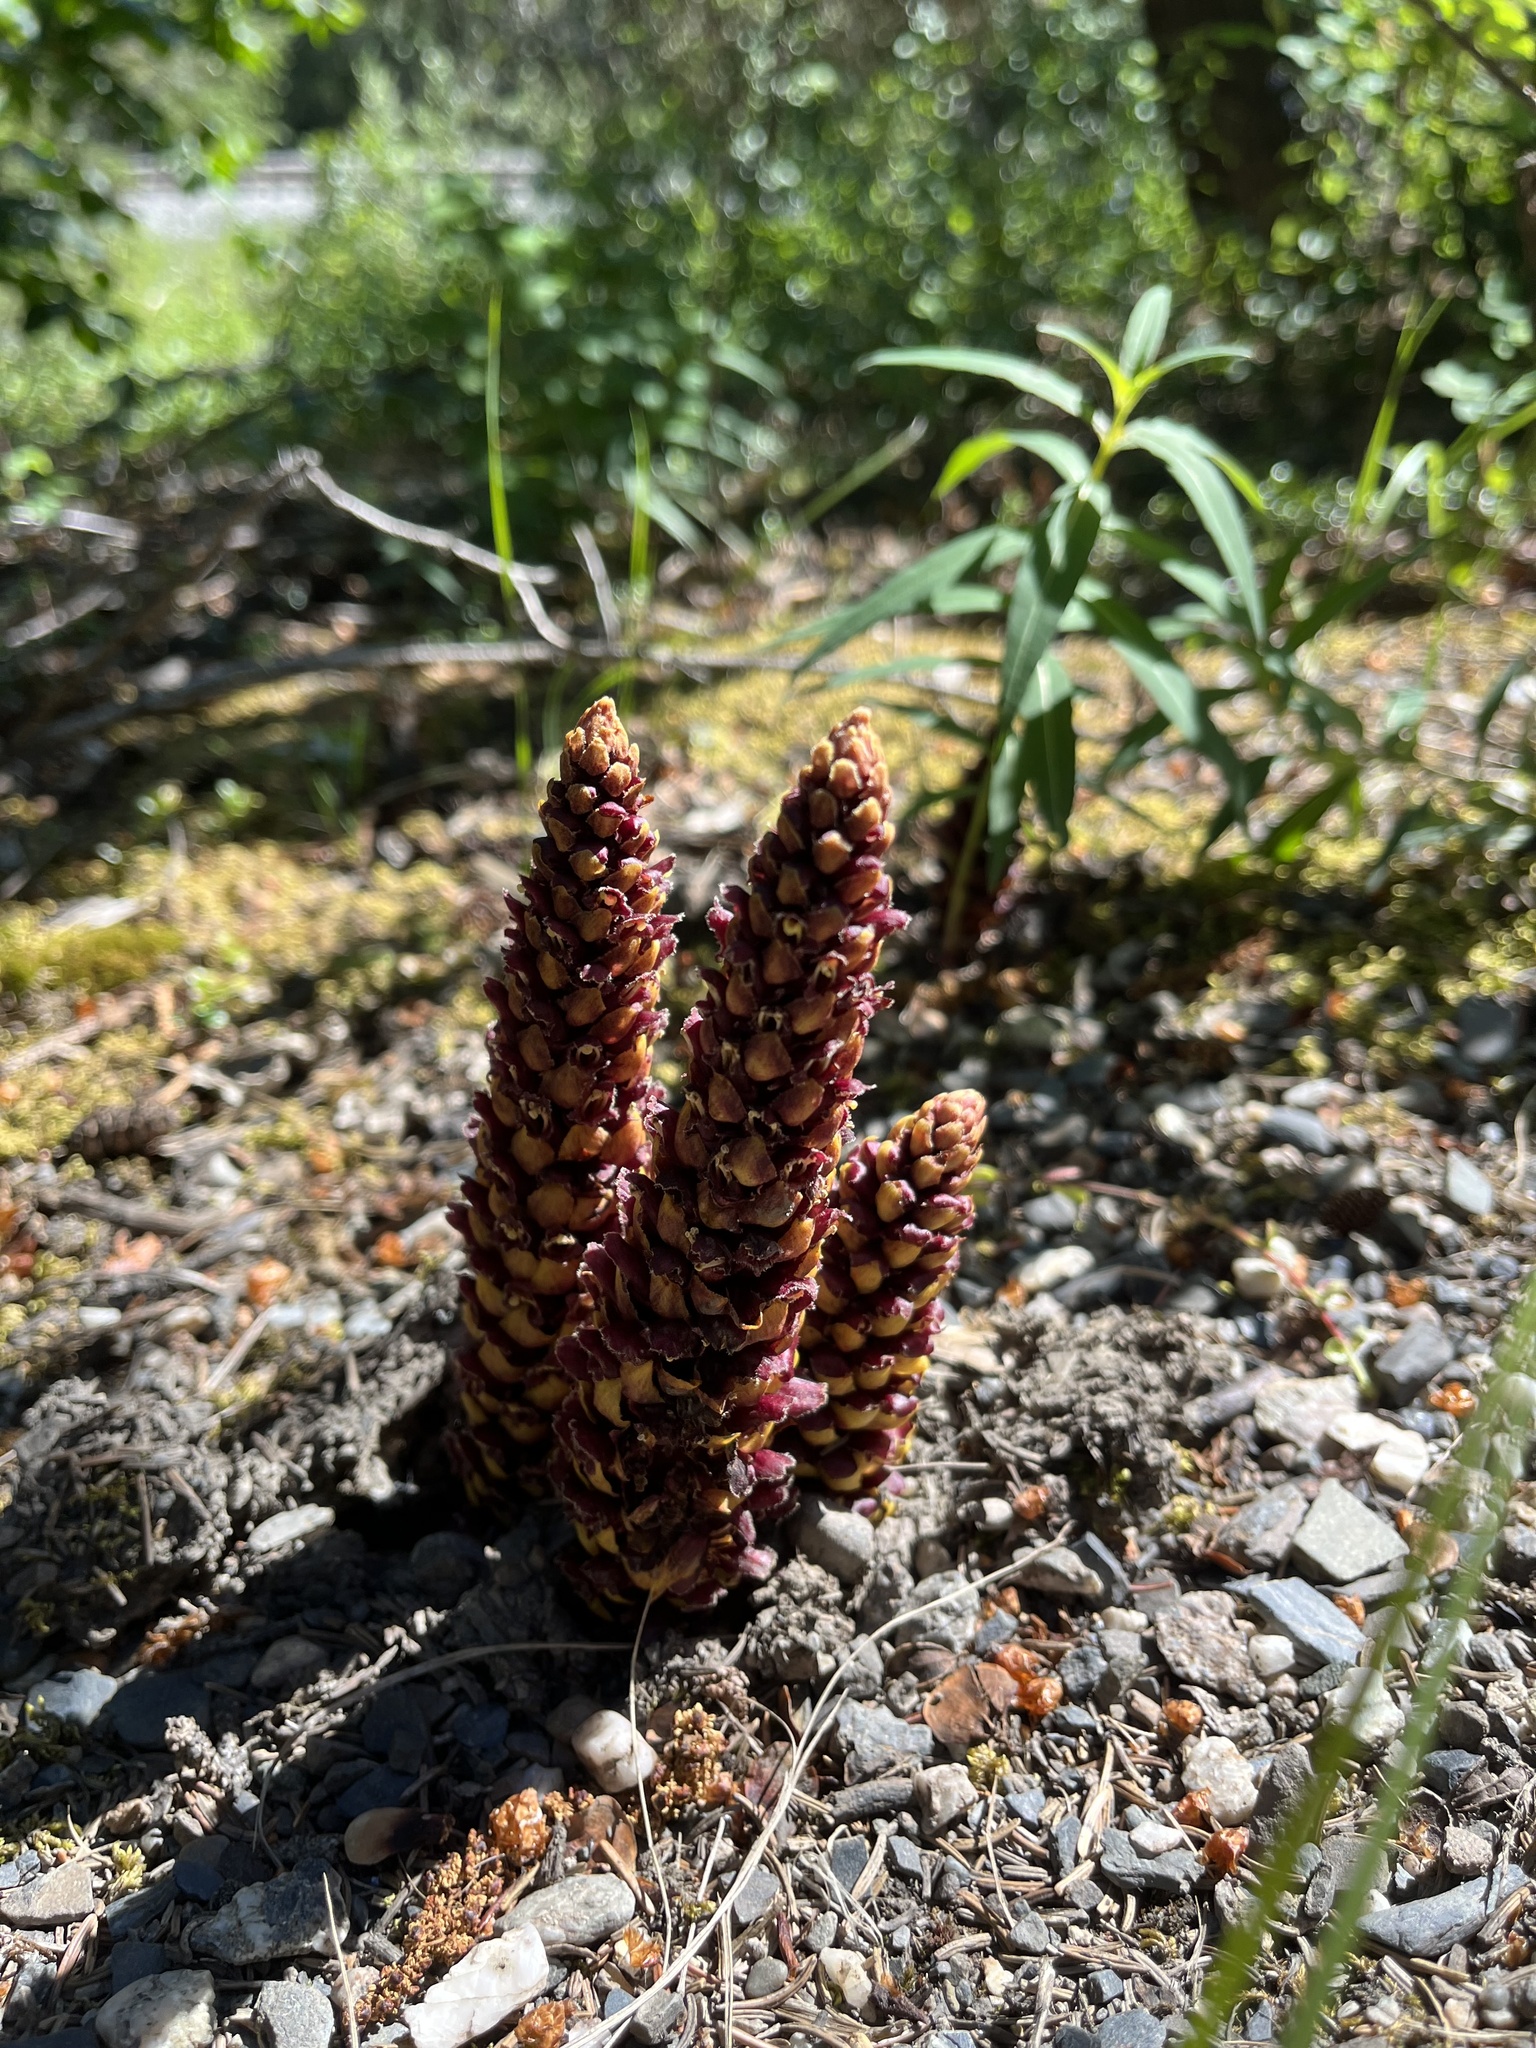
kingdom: Plantae
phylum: Tracheophyta
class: Magnoliopsida
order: Lamiales
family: Orobanchaceae
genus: Boschniakia
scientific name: Boschniakia rossica
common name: Poque
